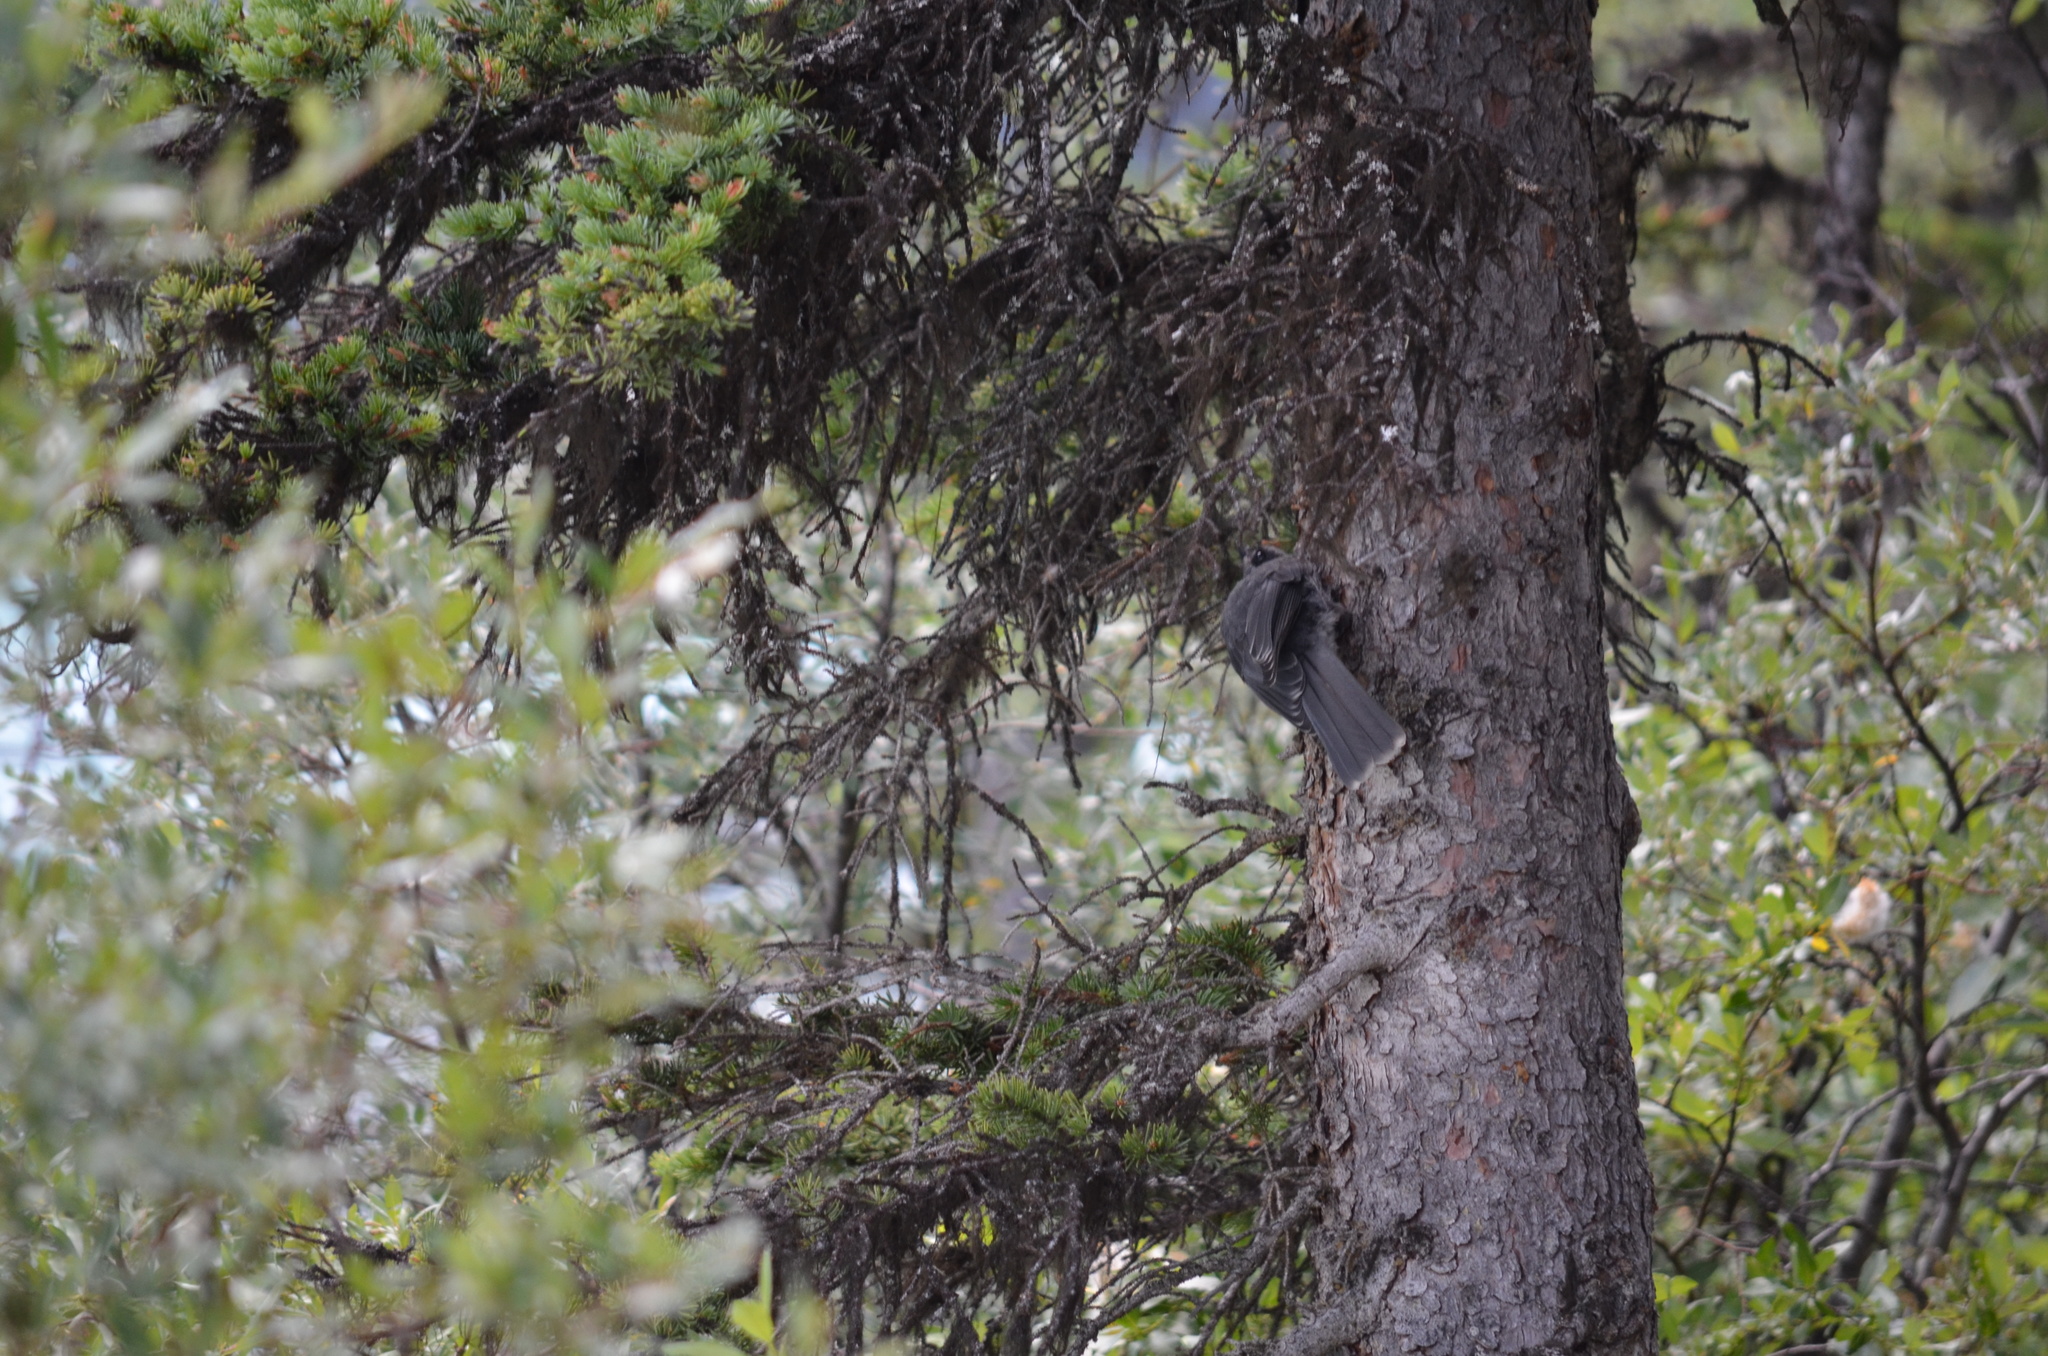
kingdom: Animalia
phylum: Chordata
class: Aves
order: Passeriformes
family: Corvidae
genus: Perisoreus
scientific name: Perisoreus canadensis
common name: Gray jay
